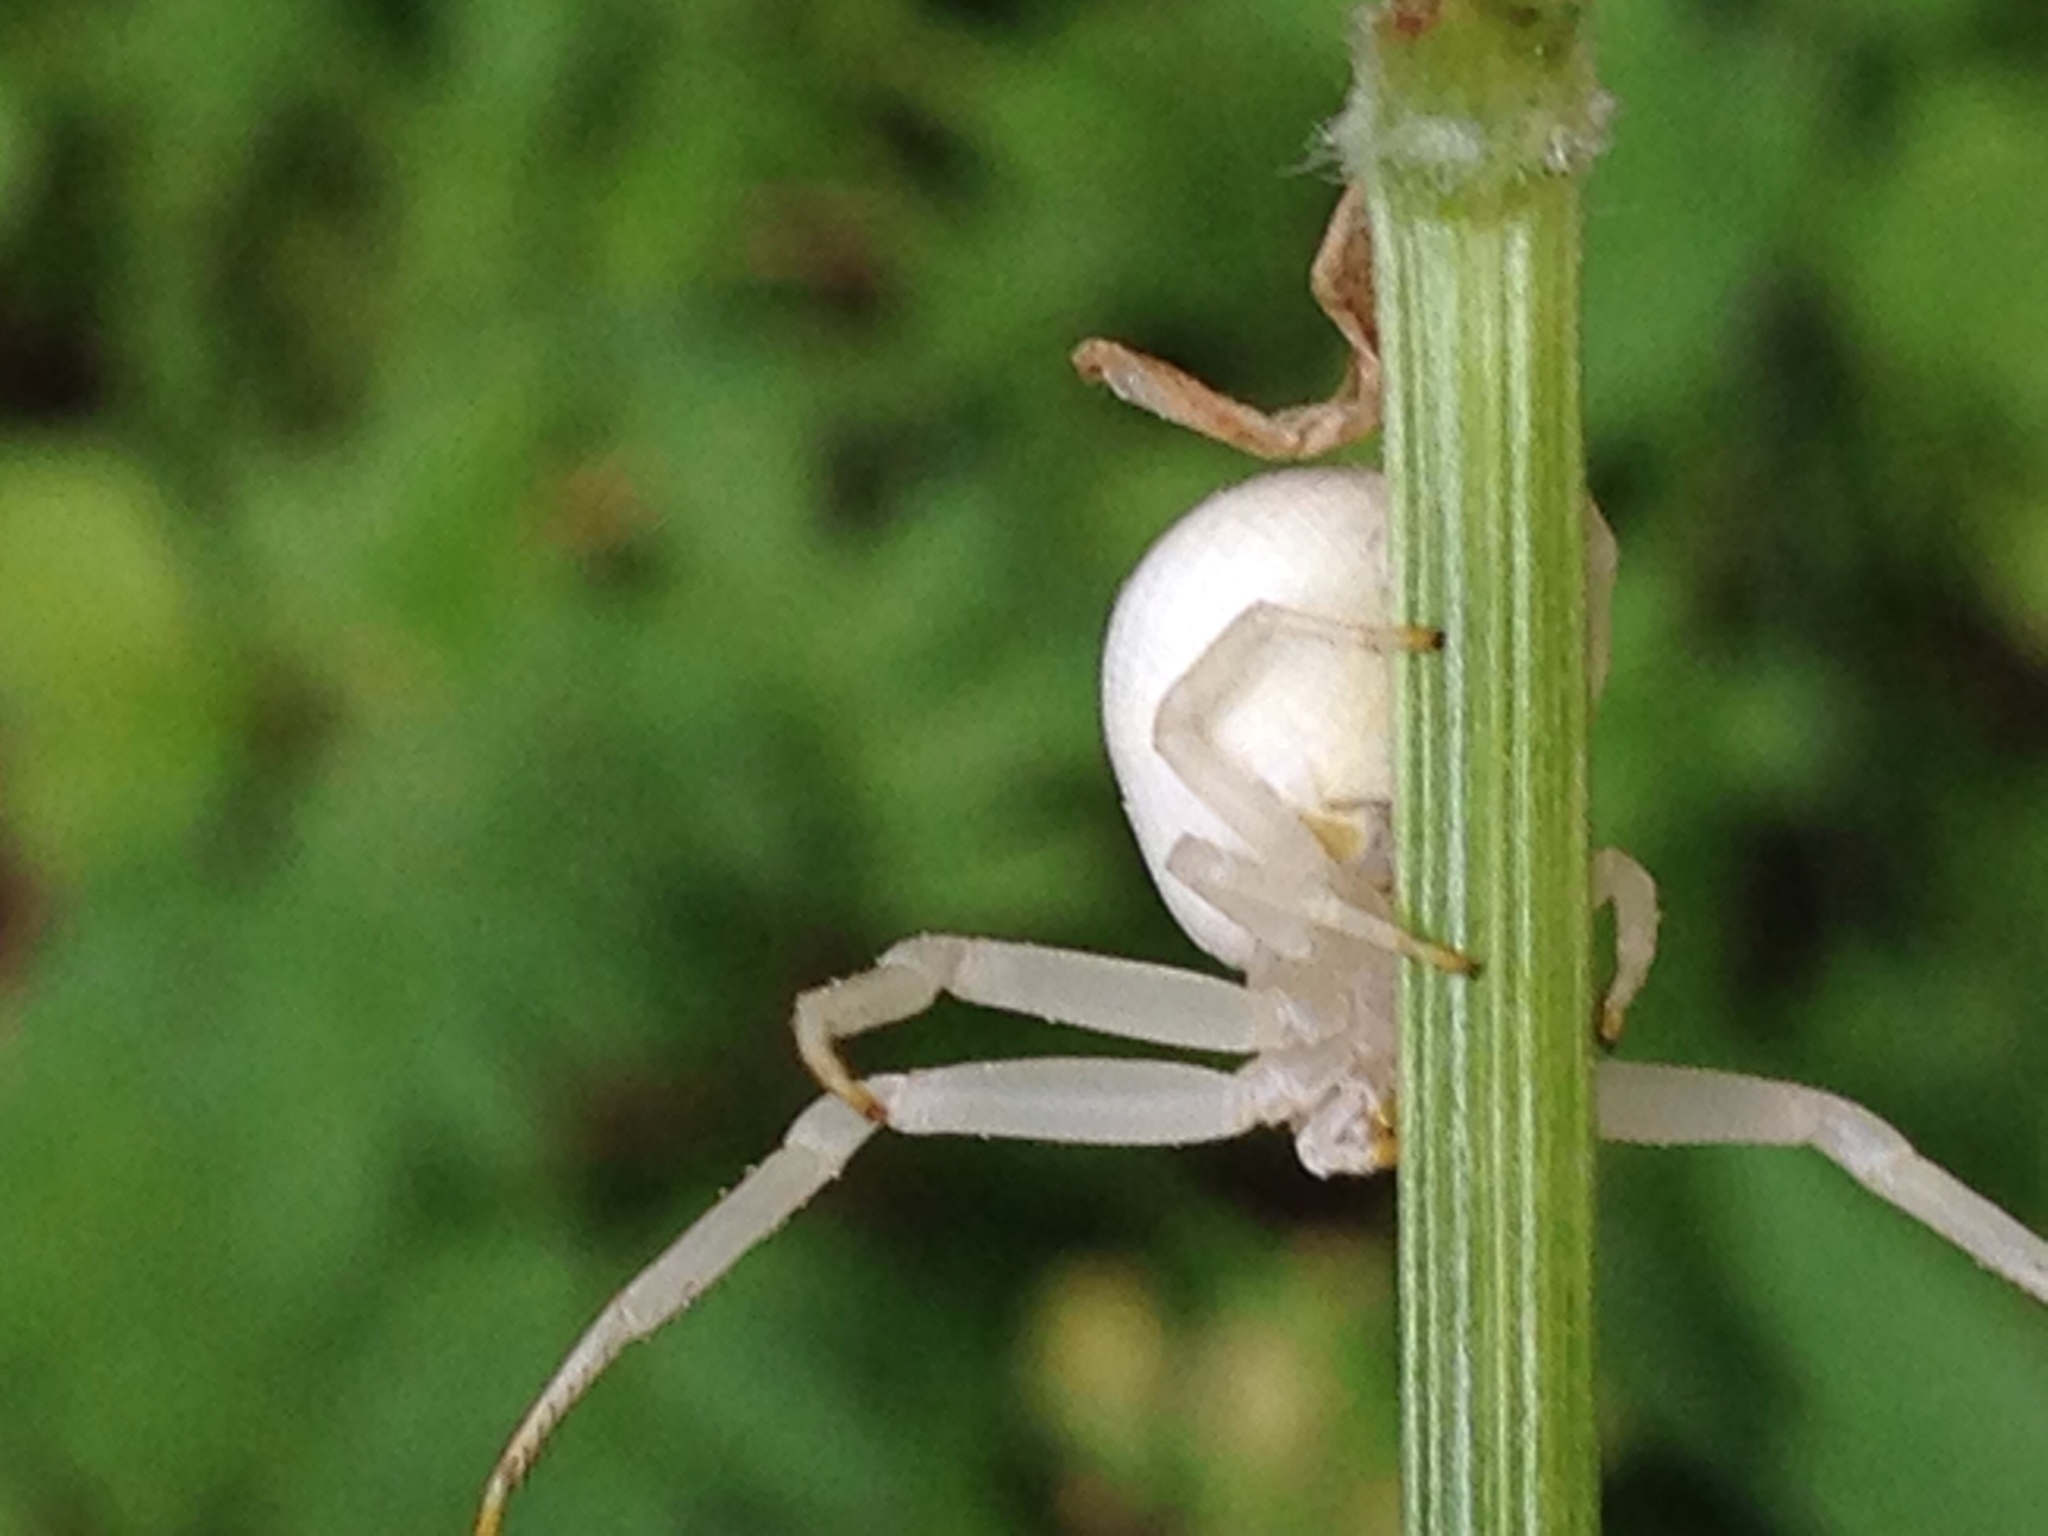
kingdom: Animalia
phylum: Arthropoda
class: Arachnida
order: Araneae
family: Thomisidae
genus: Misumena
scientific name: Misumena vatia
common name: Goldenrod crab spider
